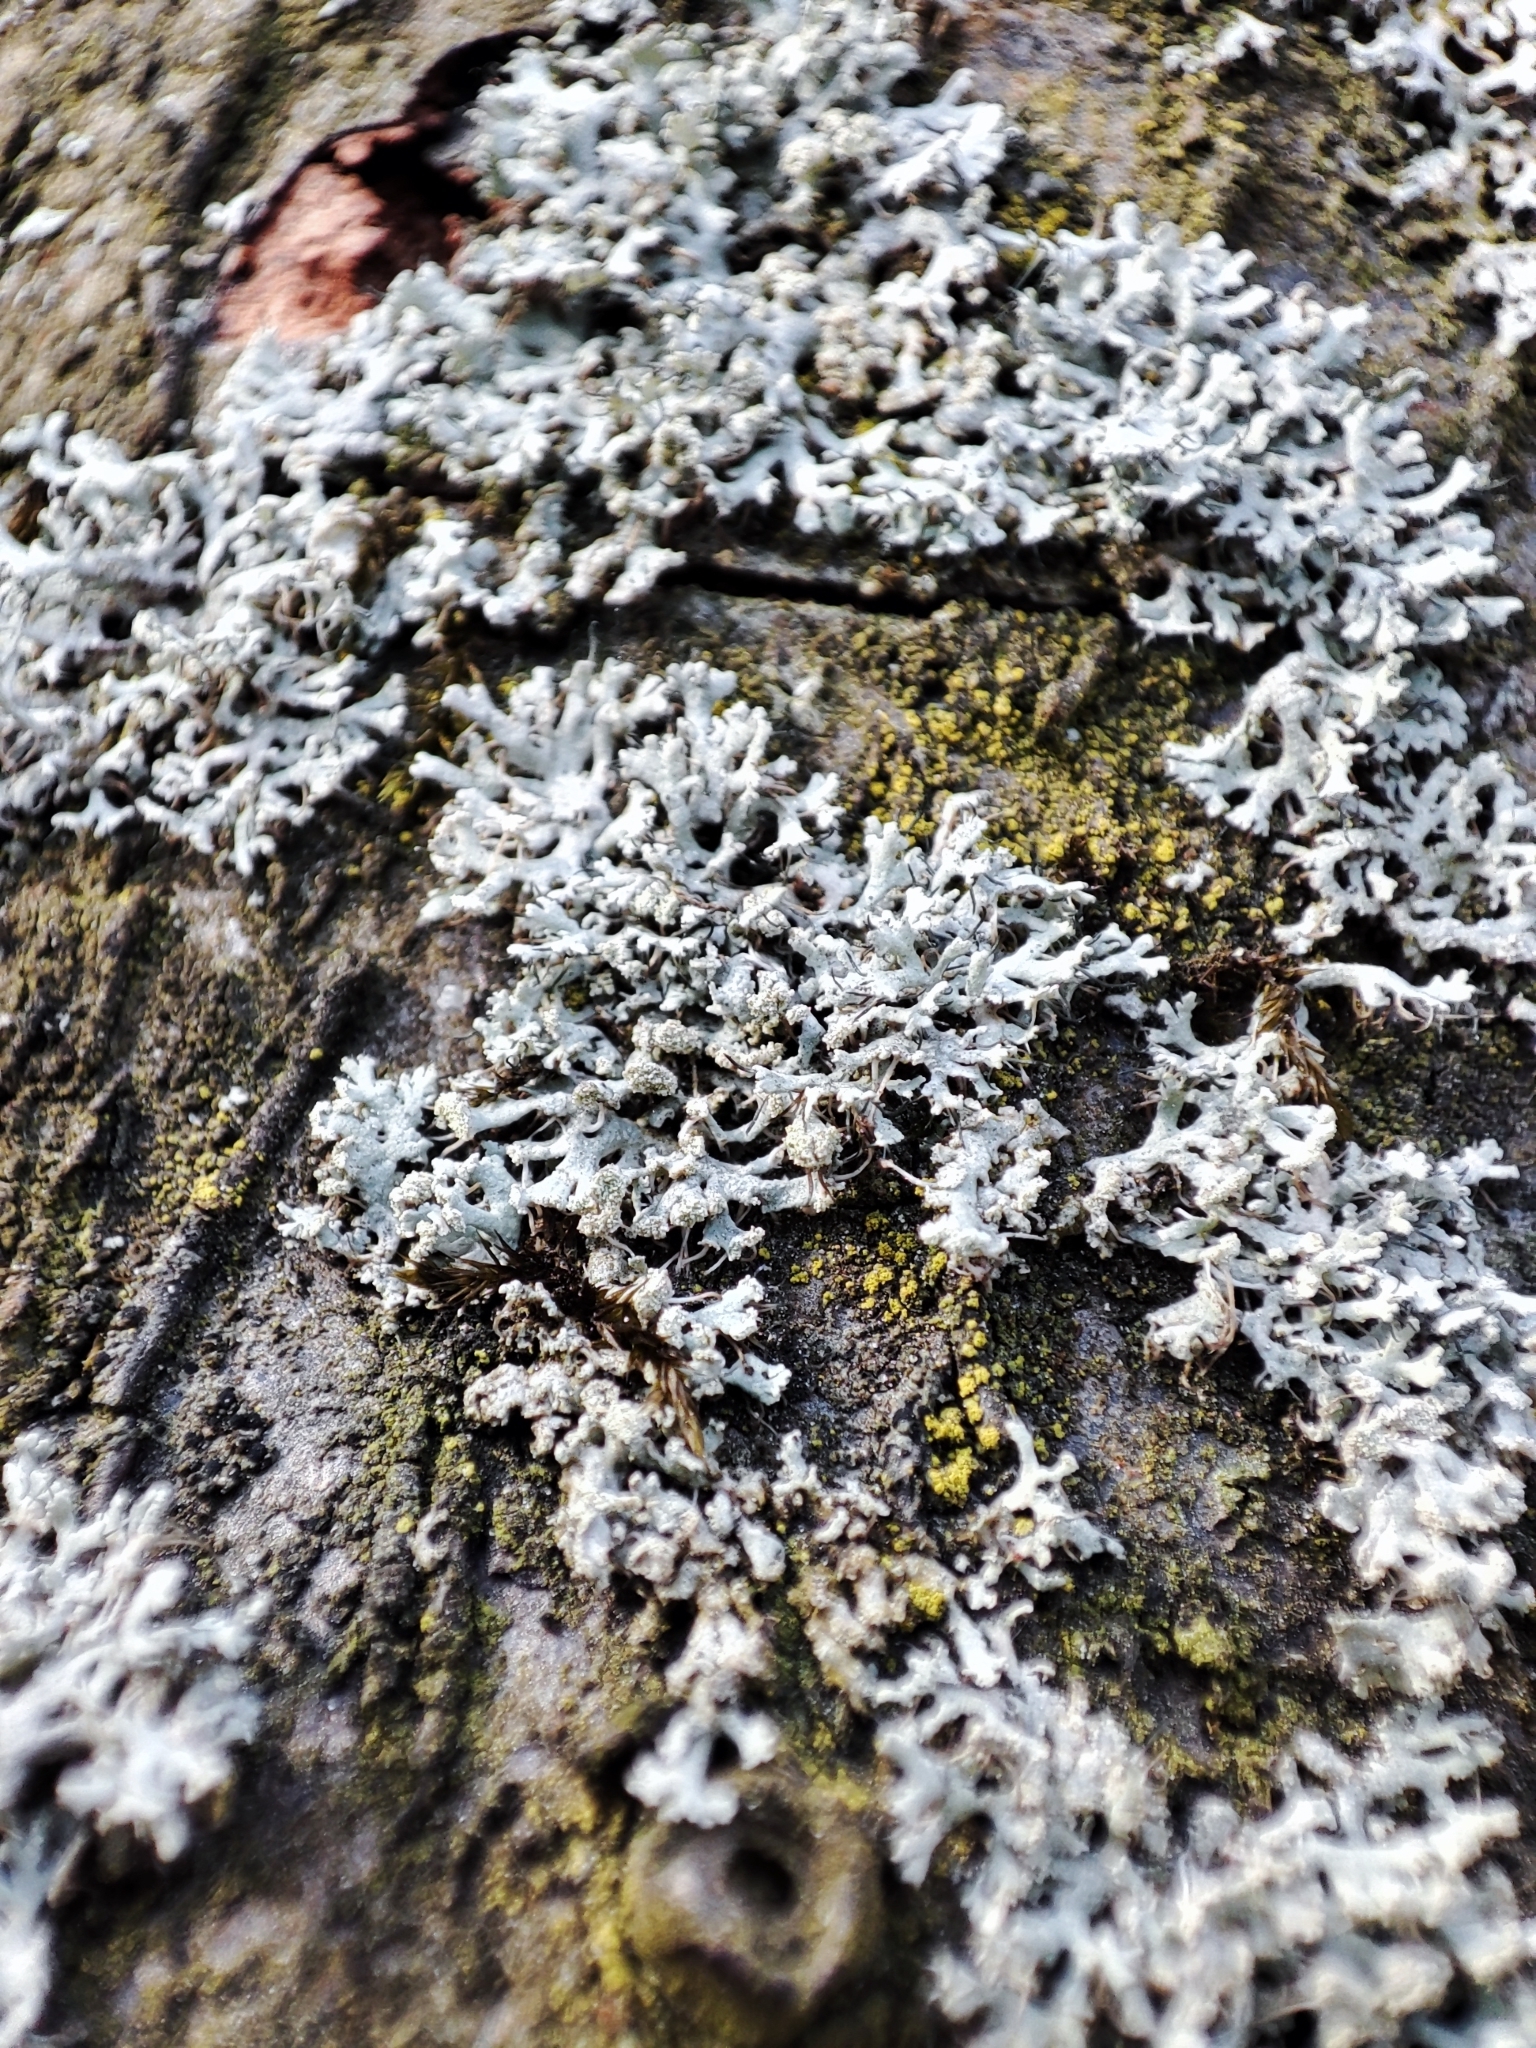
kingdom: Fungi
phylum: Ascomycota
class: Lecanoromycetes
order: Caliciales
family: Physciaceae
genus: Physcia
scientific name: Physcia tenella
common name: Fringed rosette lichen
